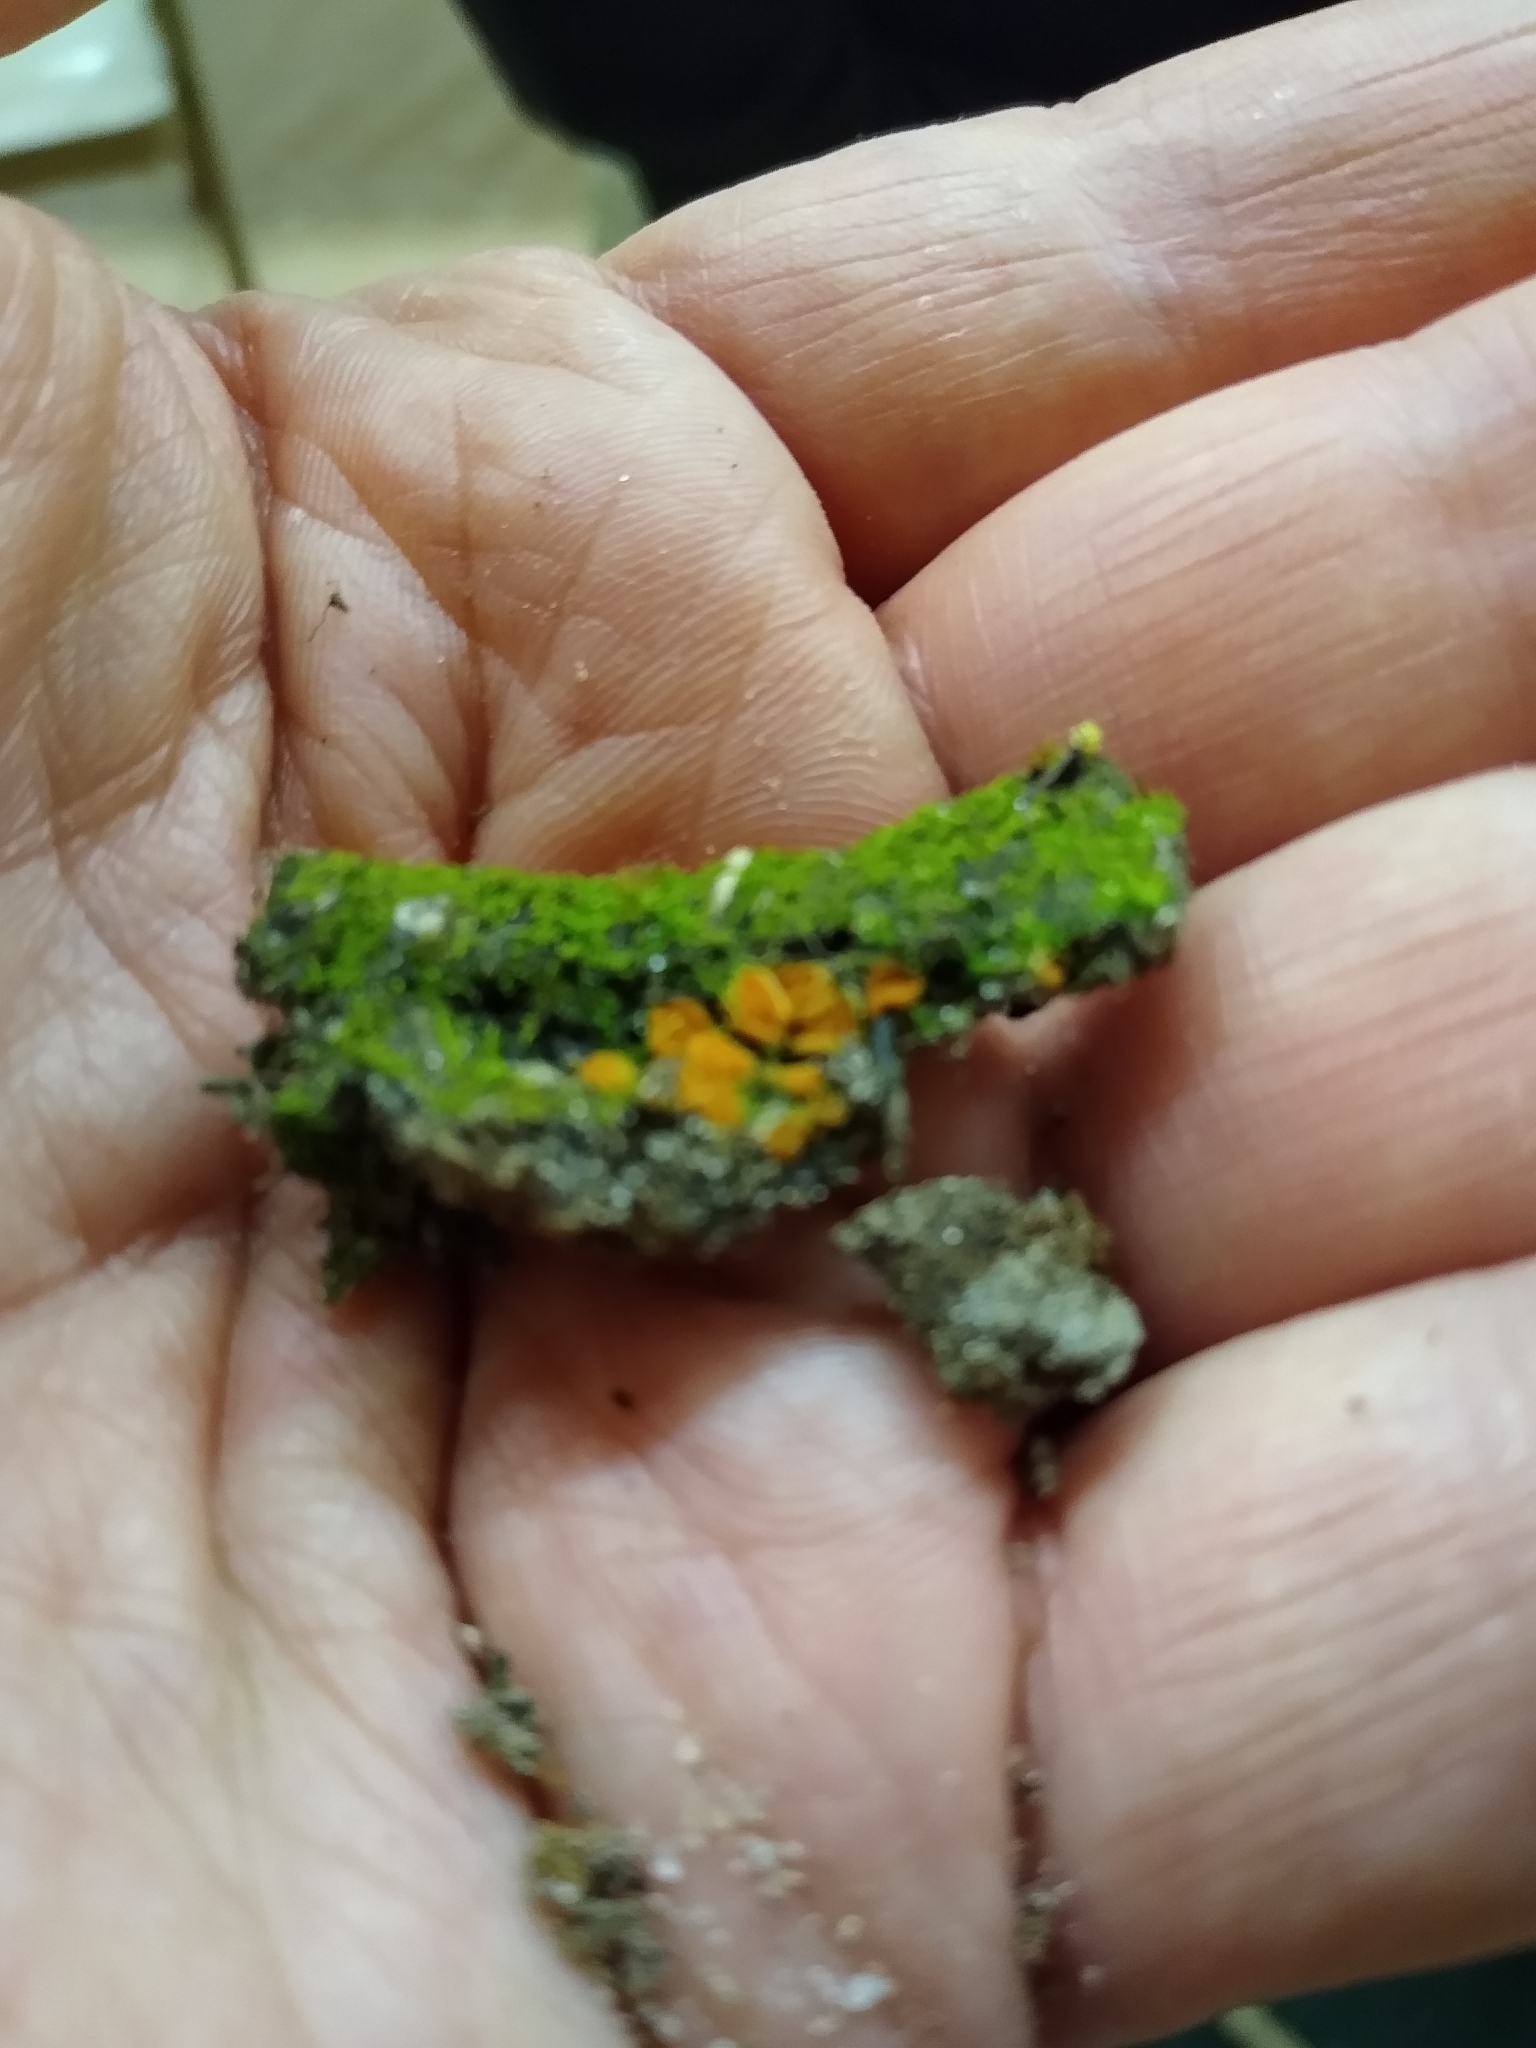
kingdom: Fungi
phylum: Ascomycota
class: Pezizomycetes
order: Pezizales
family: Pyronemataceae
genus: Lamprospora
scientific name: Lamprospora crechqueraultii
